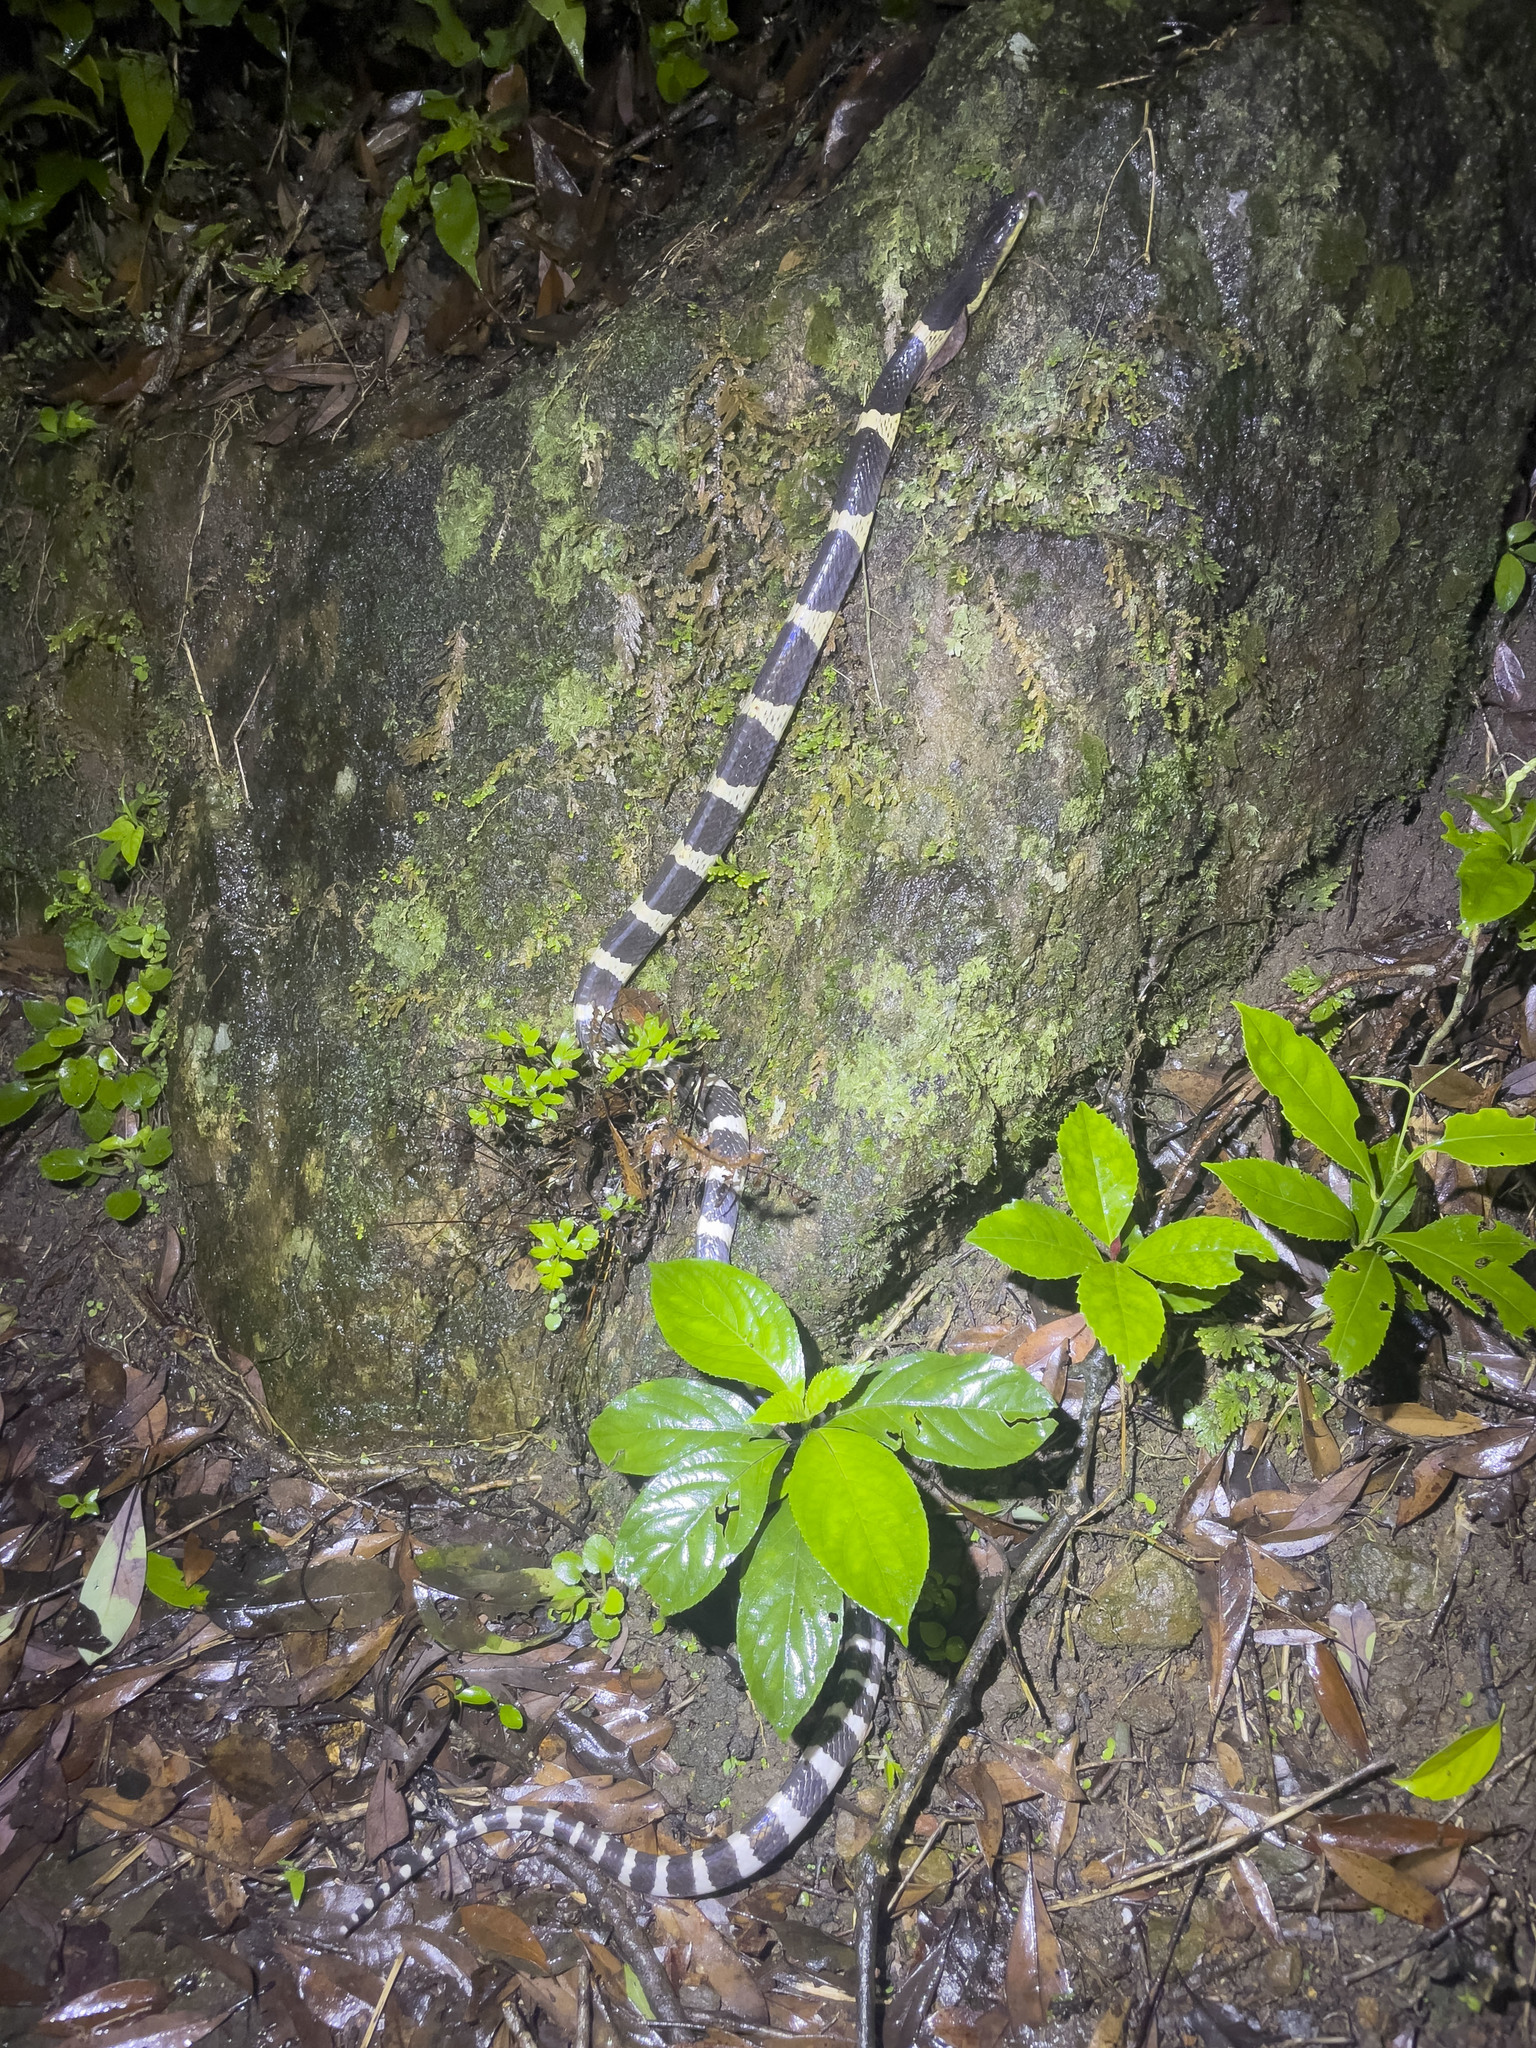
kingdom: Animalia
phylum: Chordata
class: Squamata
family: Elapidae
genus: Bungarus
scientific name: Bungarus multicinctus
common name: Many-banded krait
